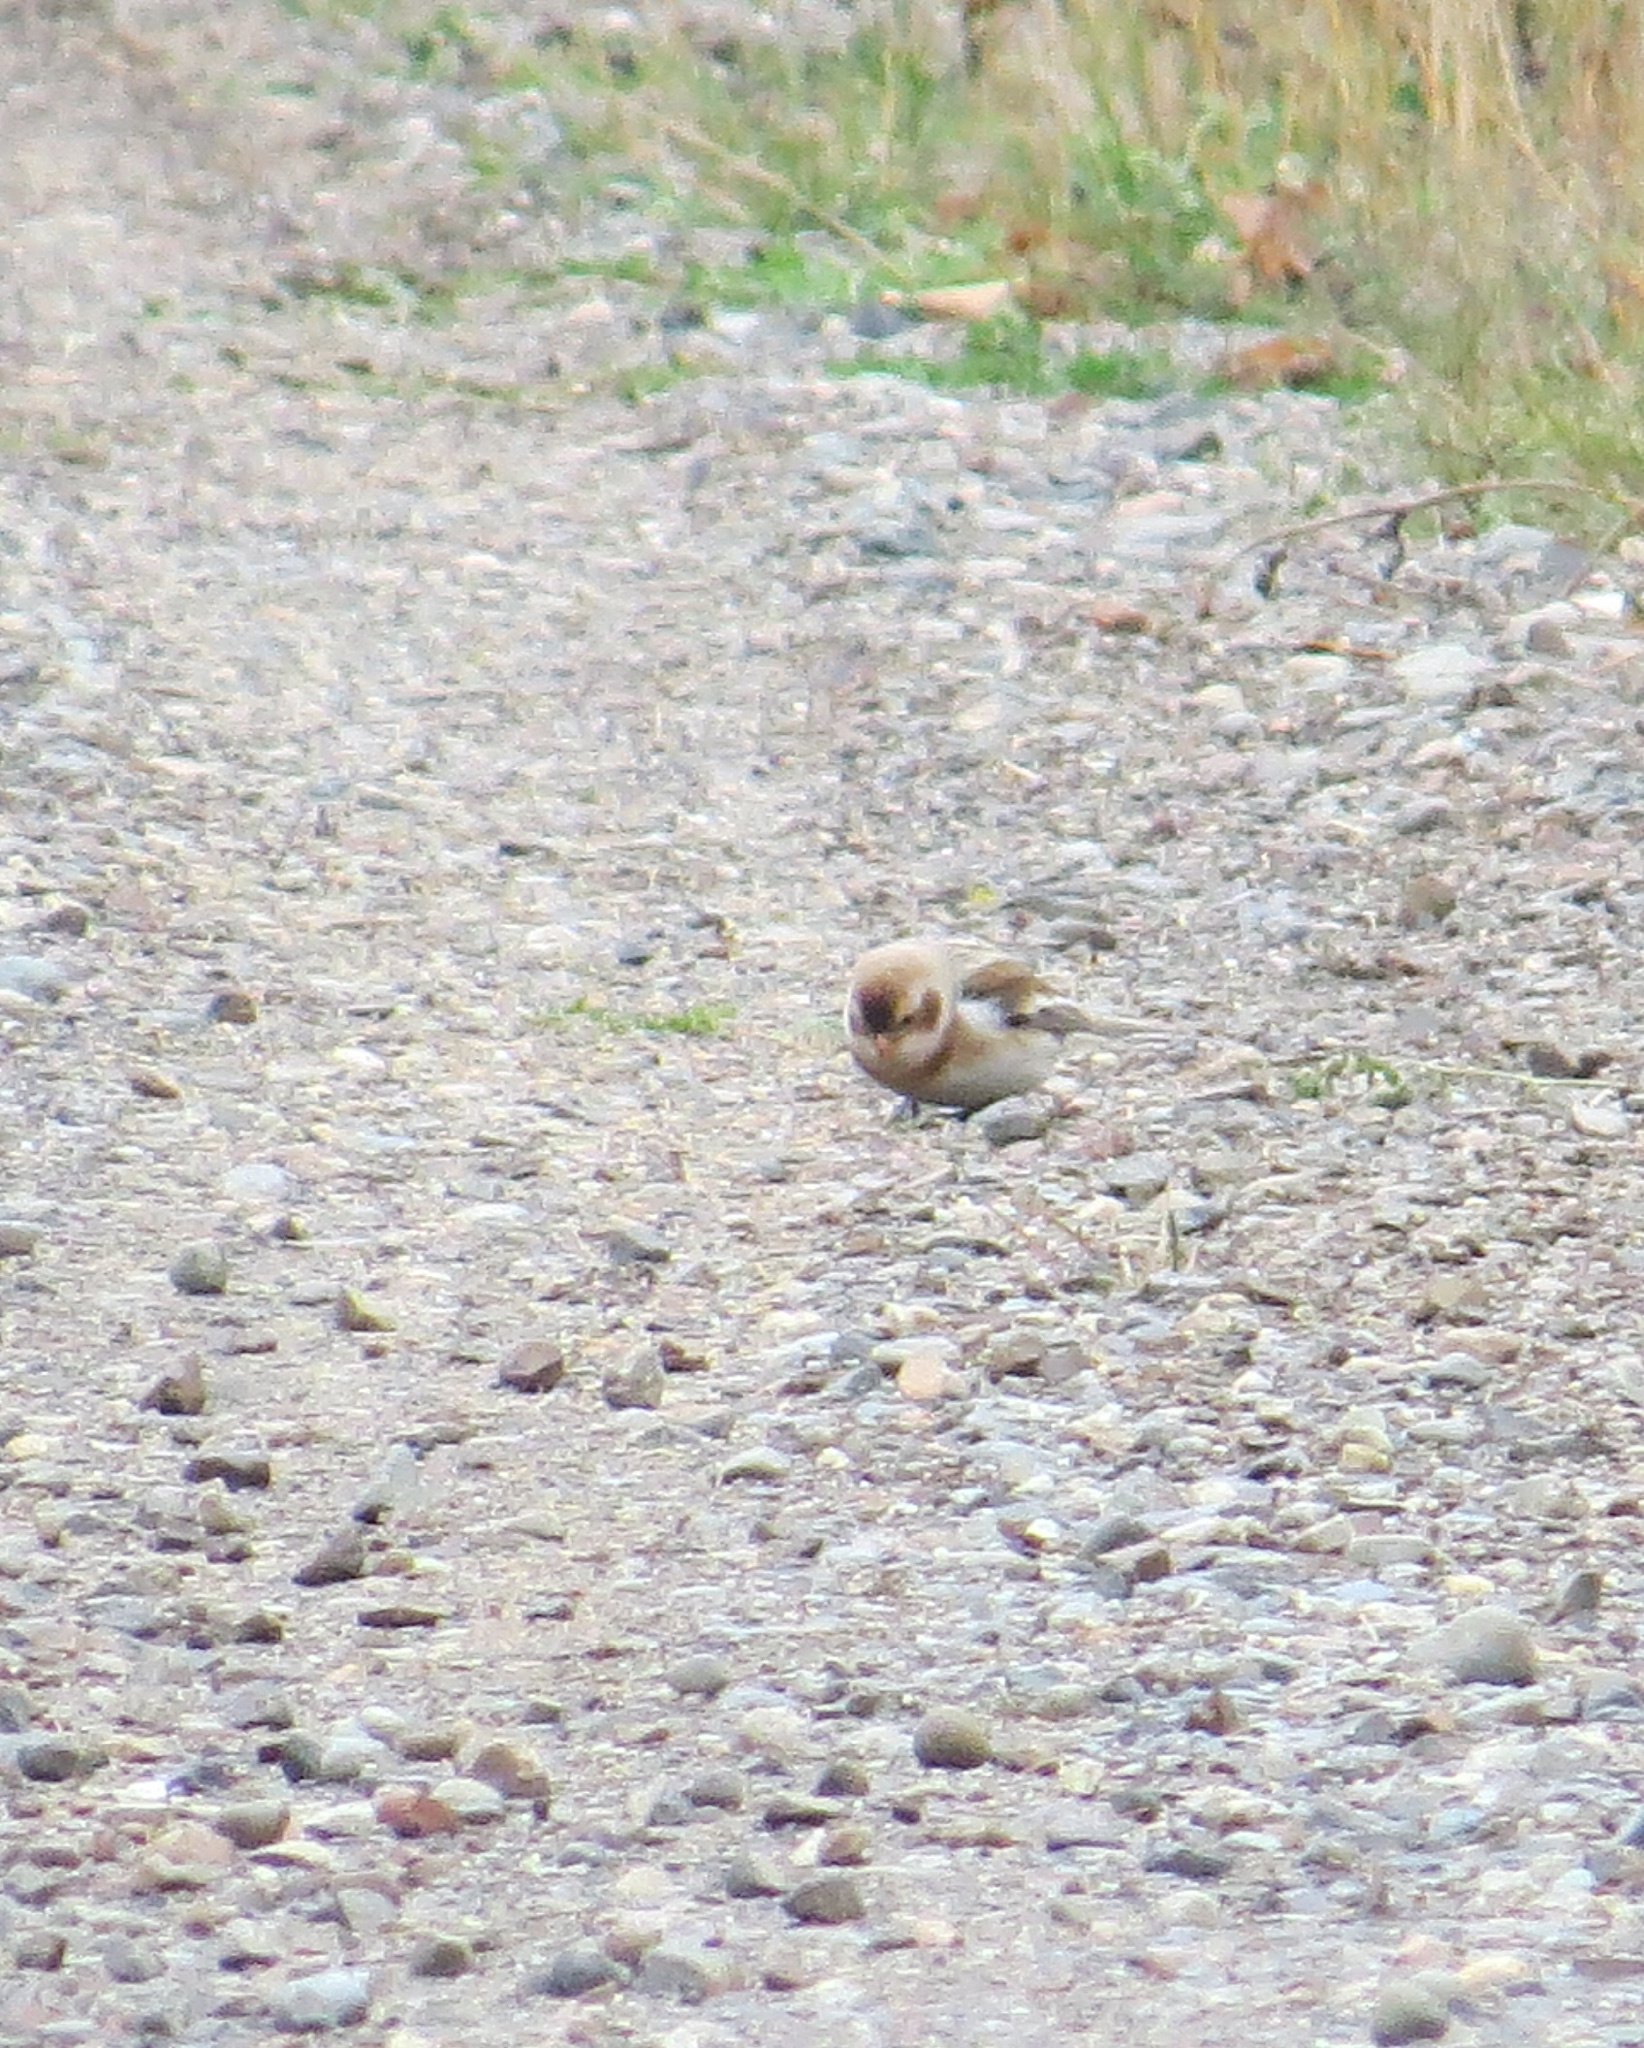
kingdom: Animalia
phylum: Chordata
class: Aves
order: Passeriformes
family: Calcariidae
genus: Plectrophenax
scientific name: Plectrophenax nivalis
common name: Snow bunting
